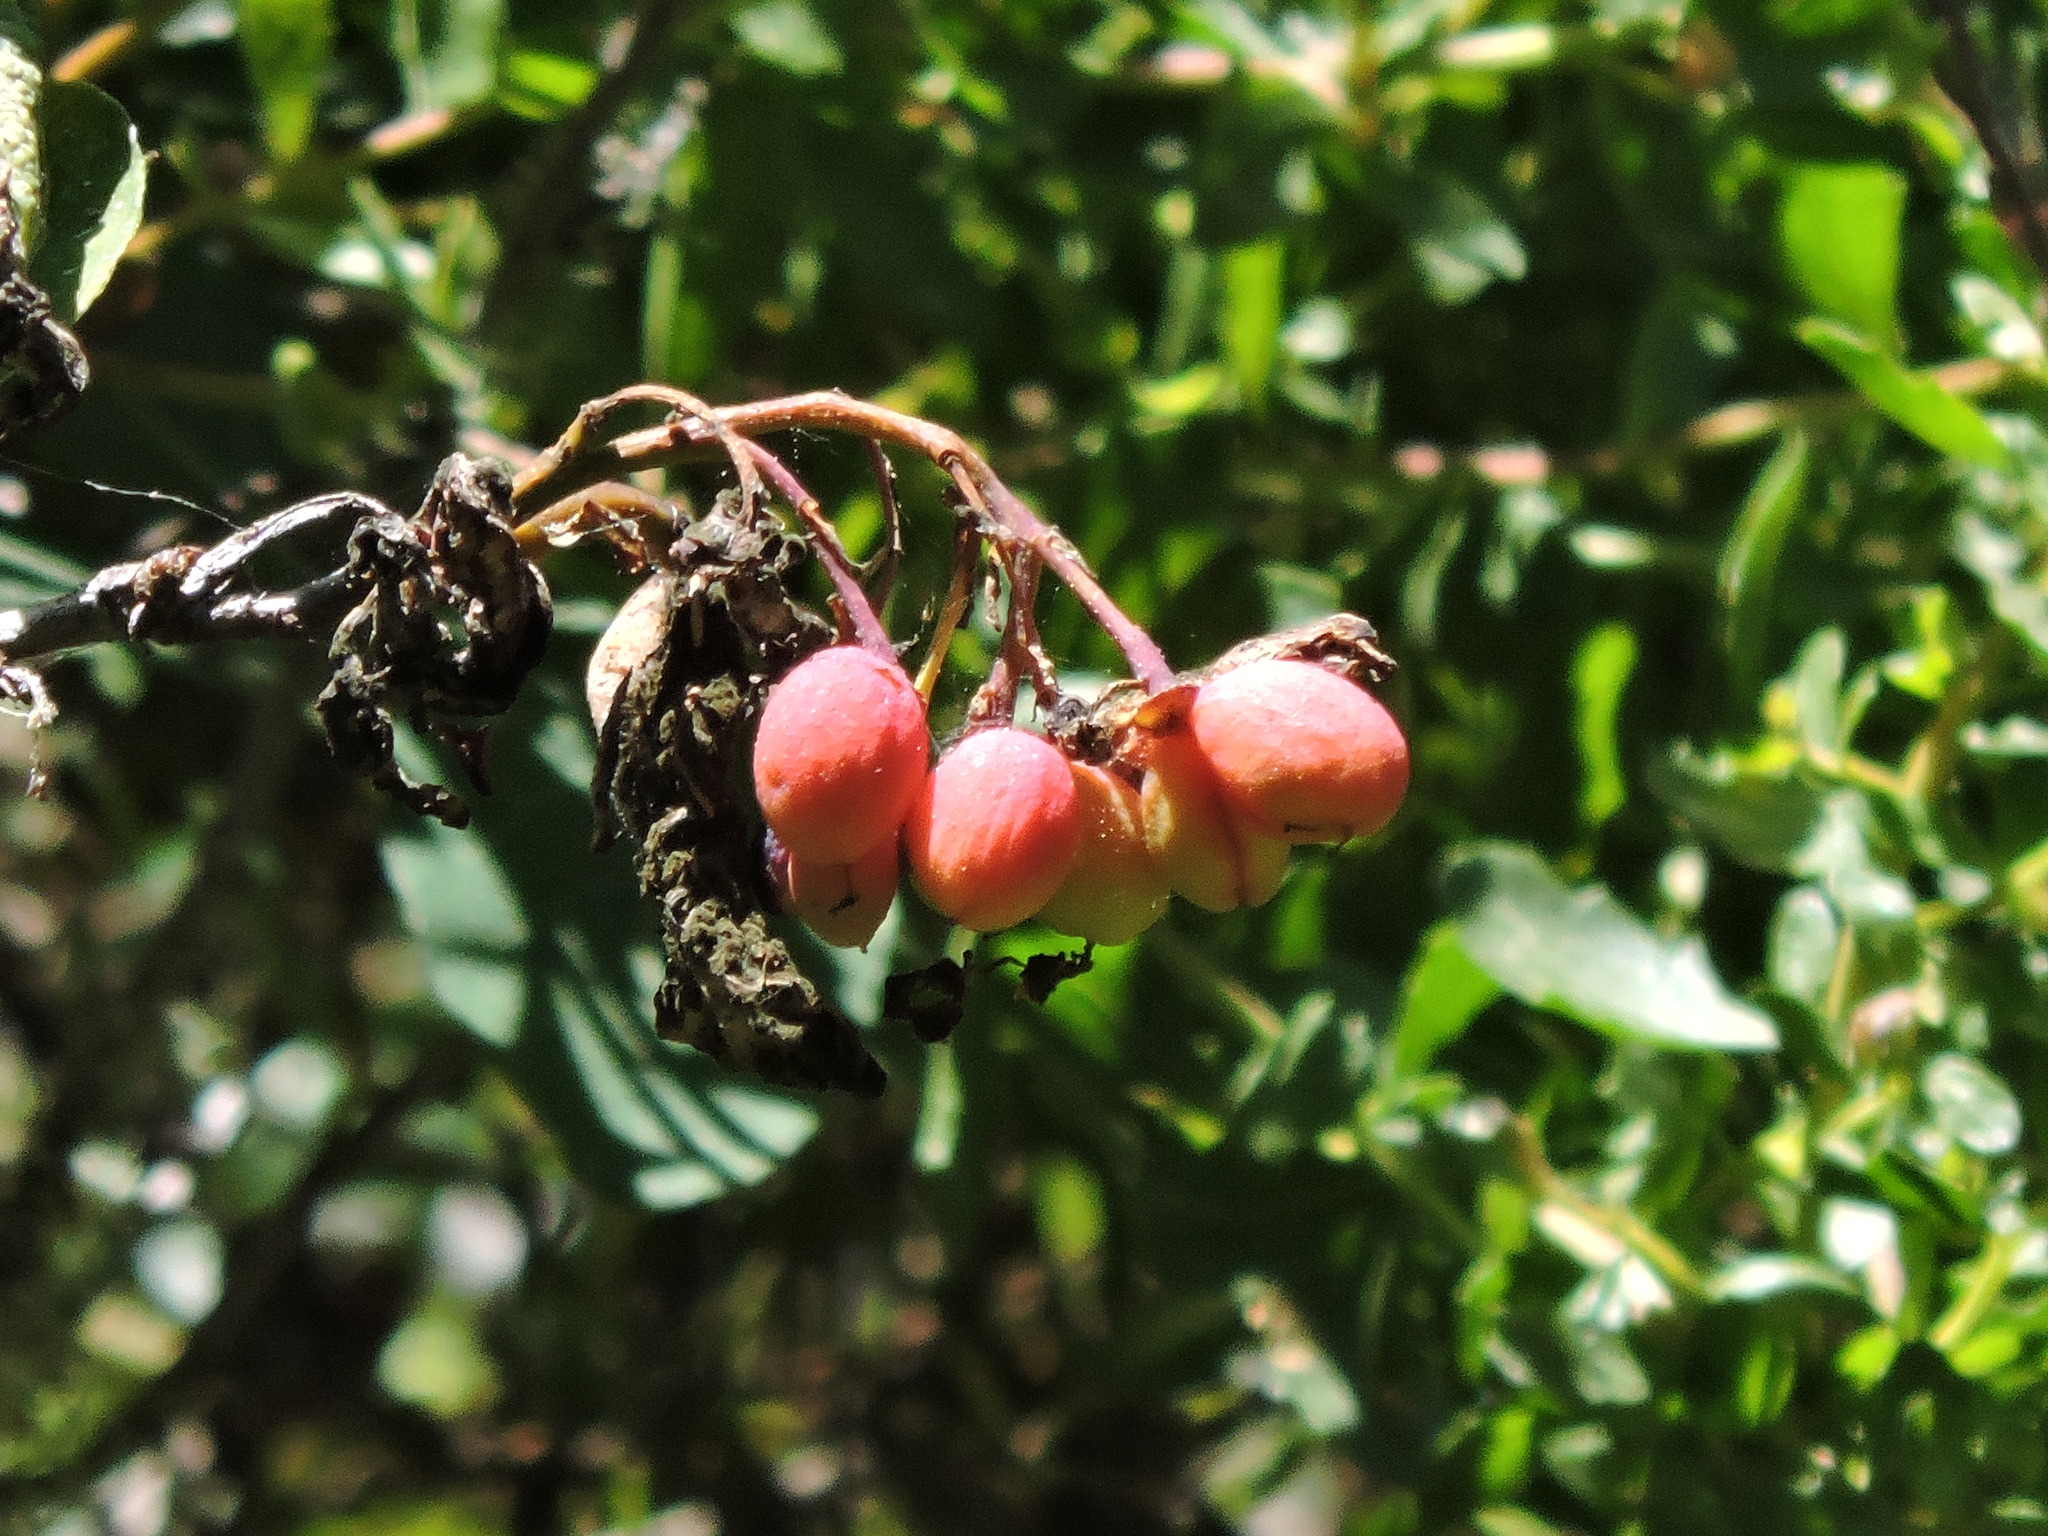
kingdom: Plantae
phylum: Tracheophyta
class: Magnoliopsida
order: Rosales
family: Rosaceae
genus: Oemleria
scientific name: Oemleria cerasiformis
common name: Osoberry
